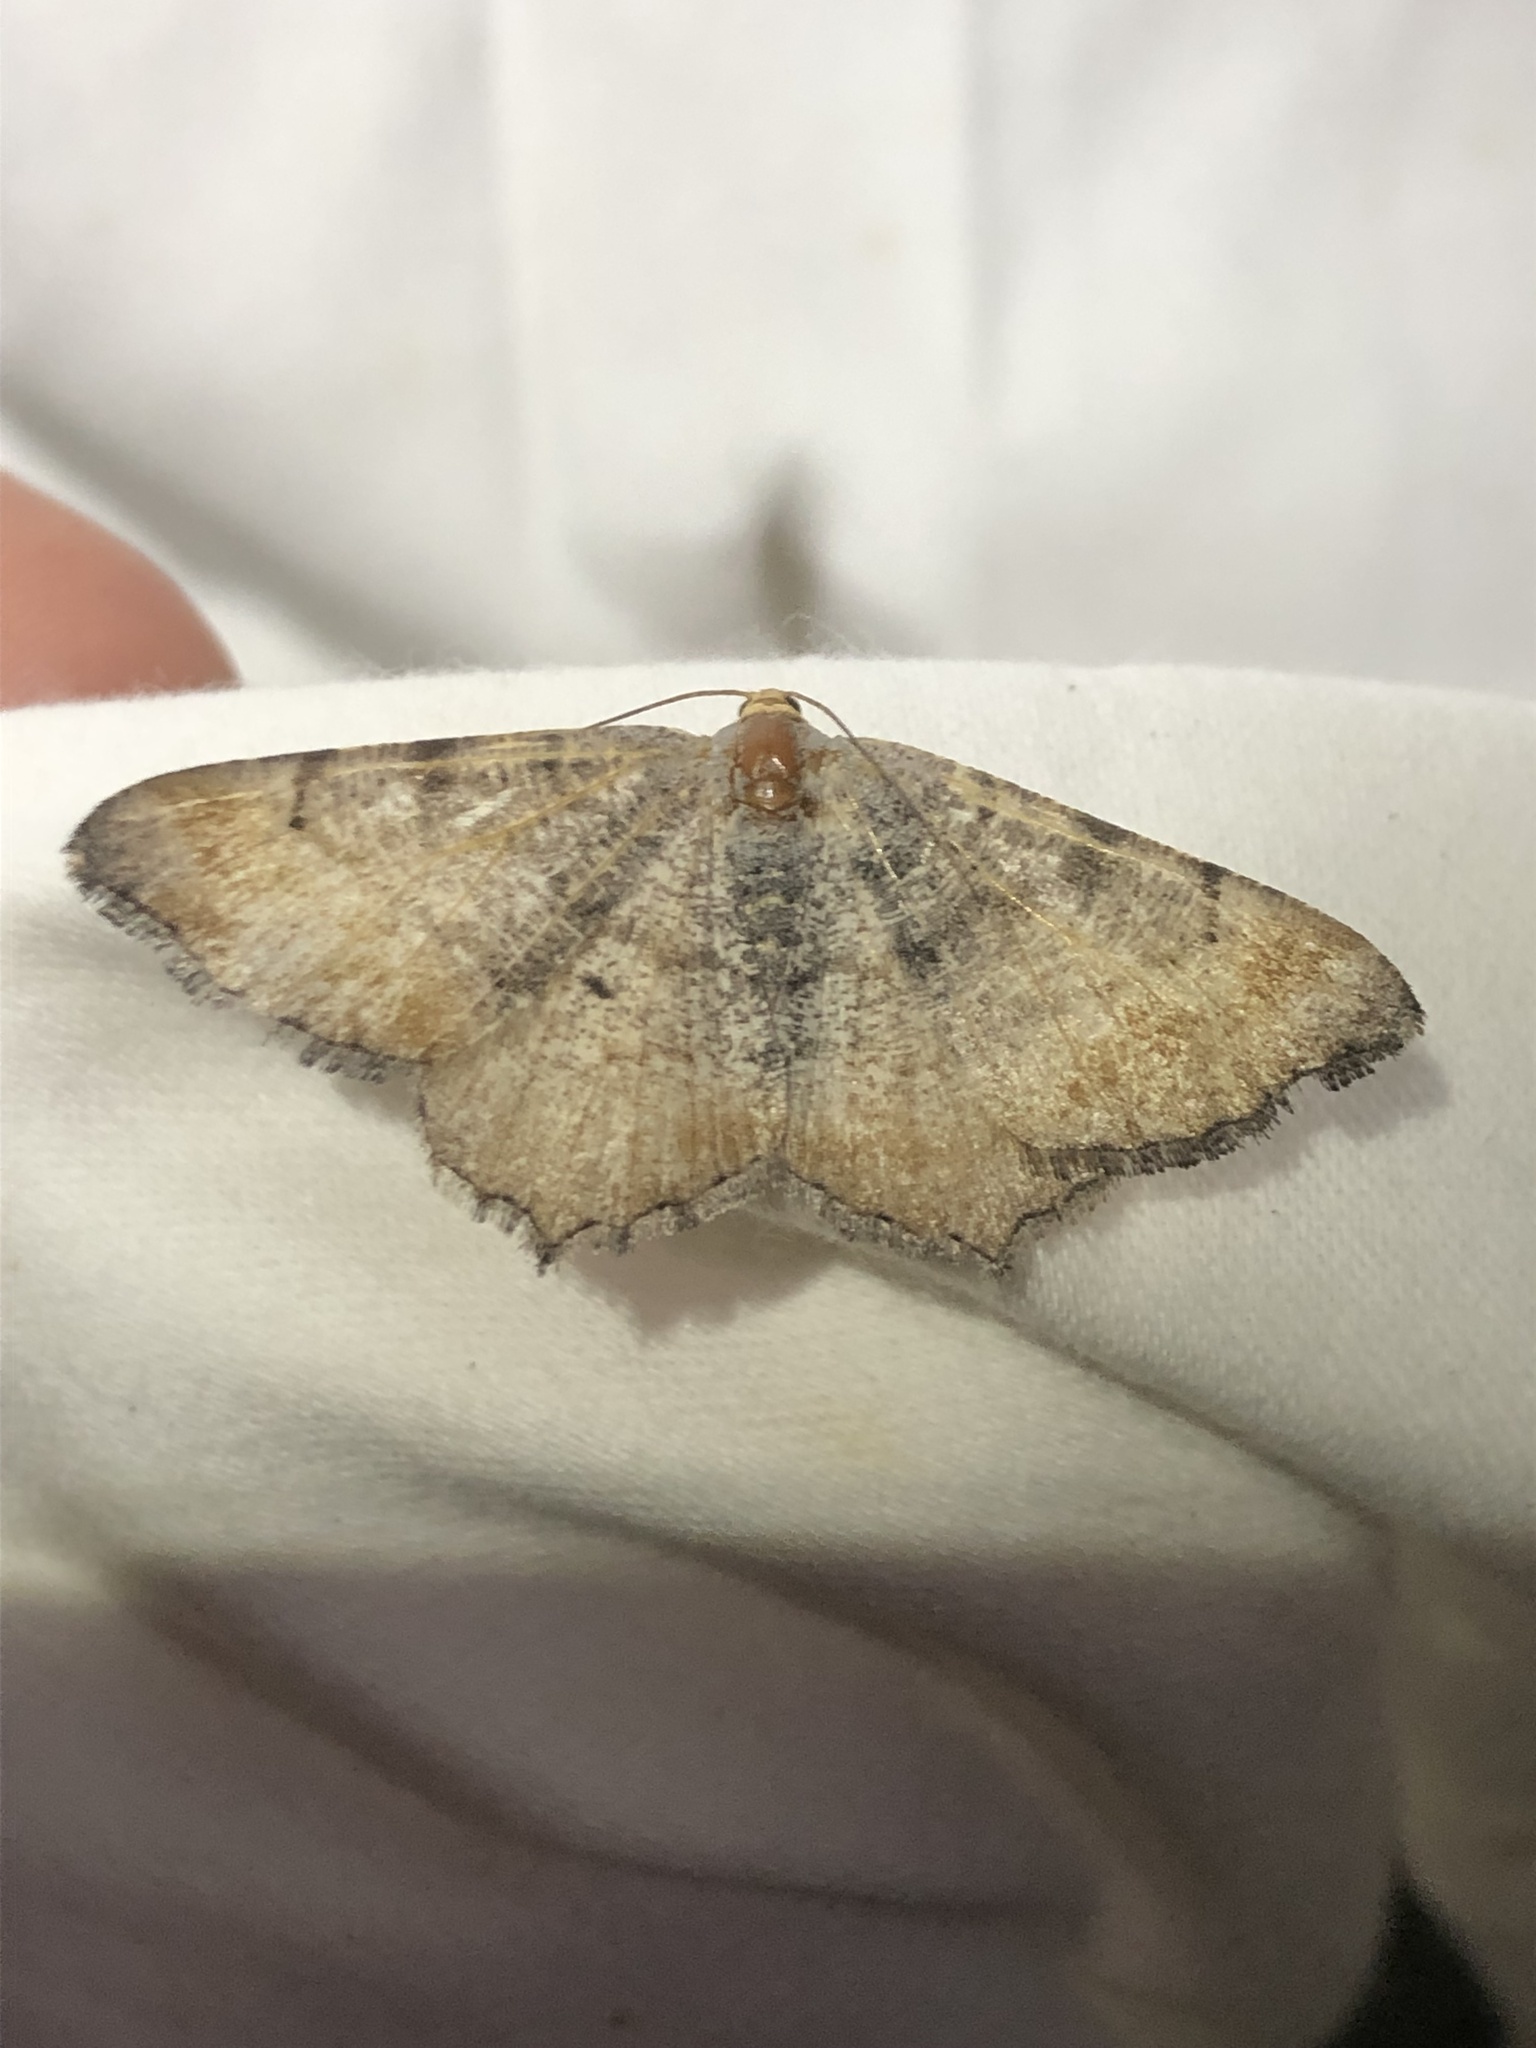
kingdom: Animalia
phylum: Arthropoda
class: Insecta
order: Lepidoptera
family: Geometridae
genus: Macaria
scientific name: Macaria adonis
